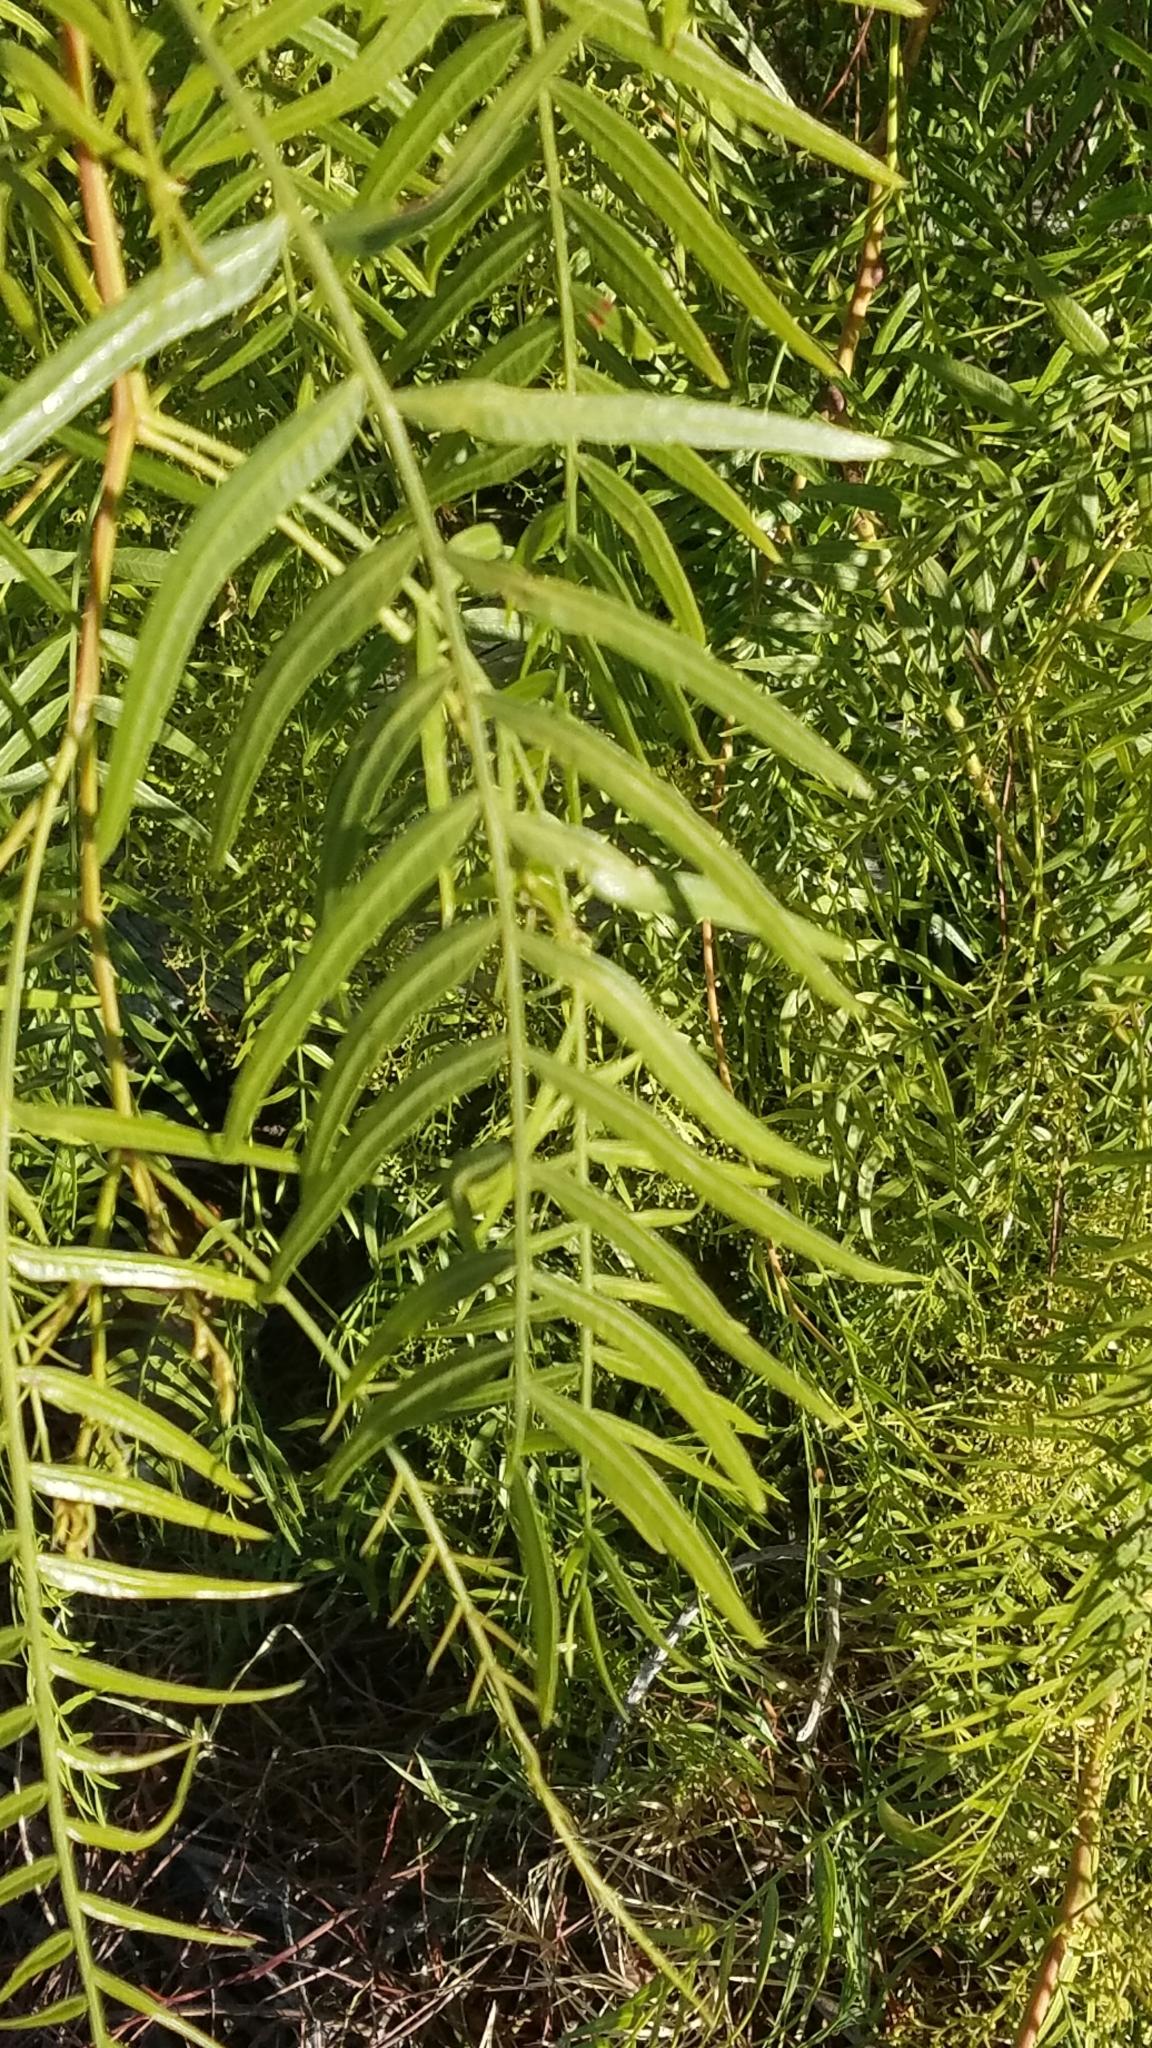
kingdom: Plantae
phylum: Tracheophyta
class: Magnoliopsida
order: Sapindales
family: Anacardiaceae
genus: Schinus
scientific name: Schinus molle
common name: Peruvian peppertree
